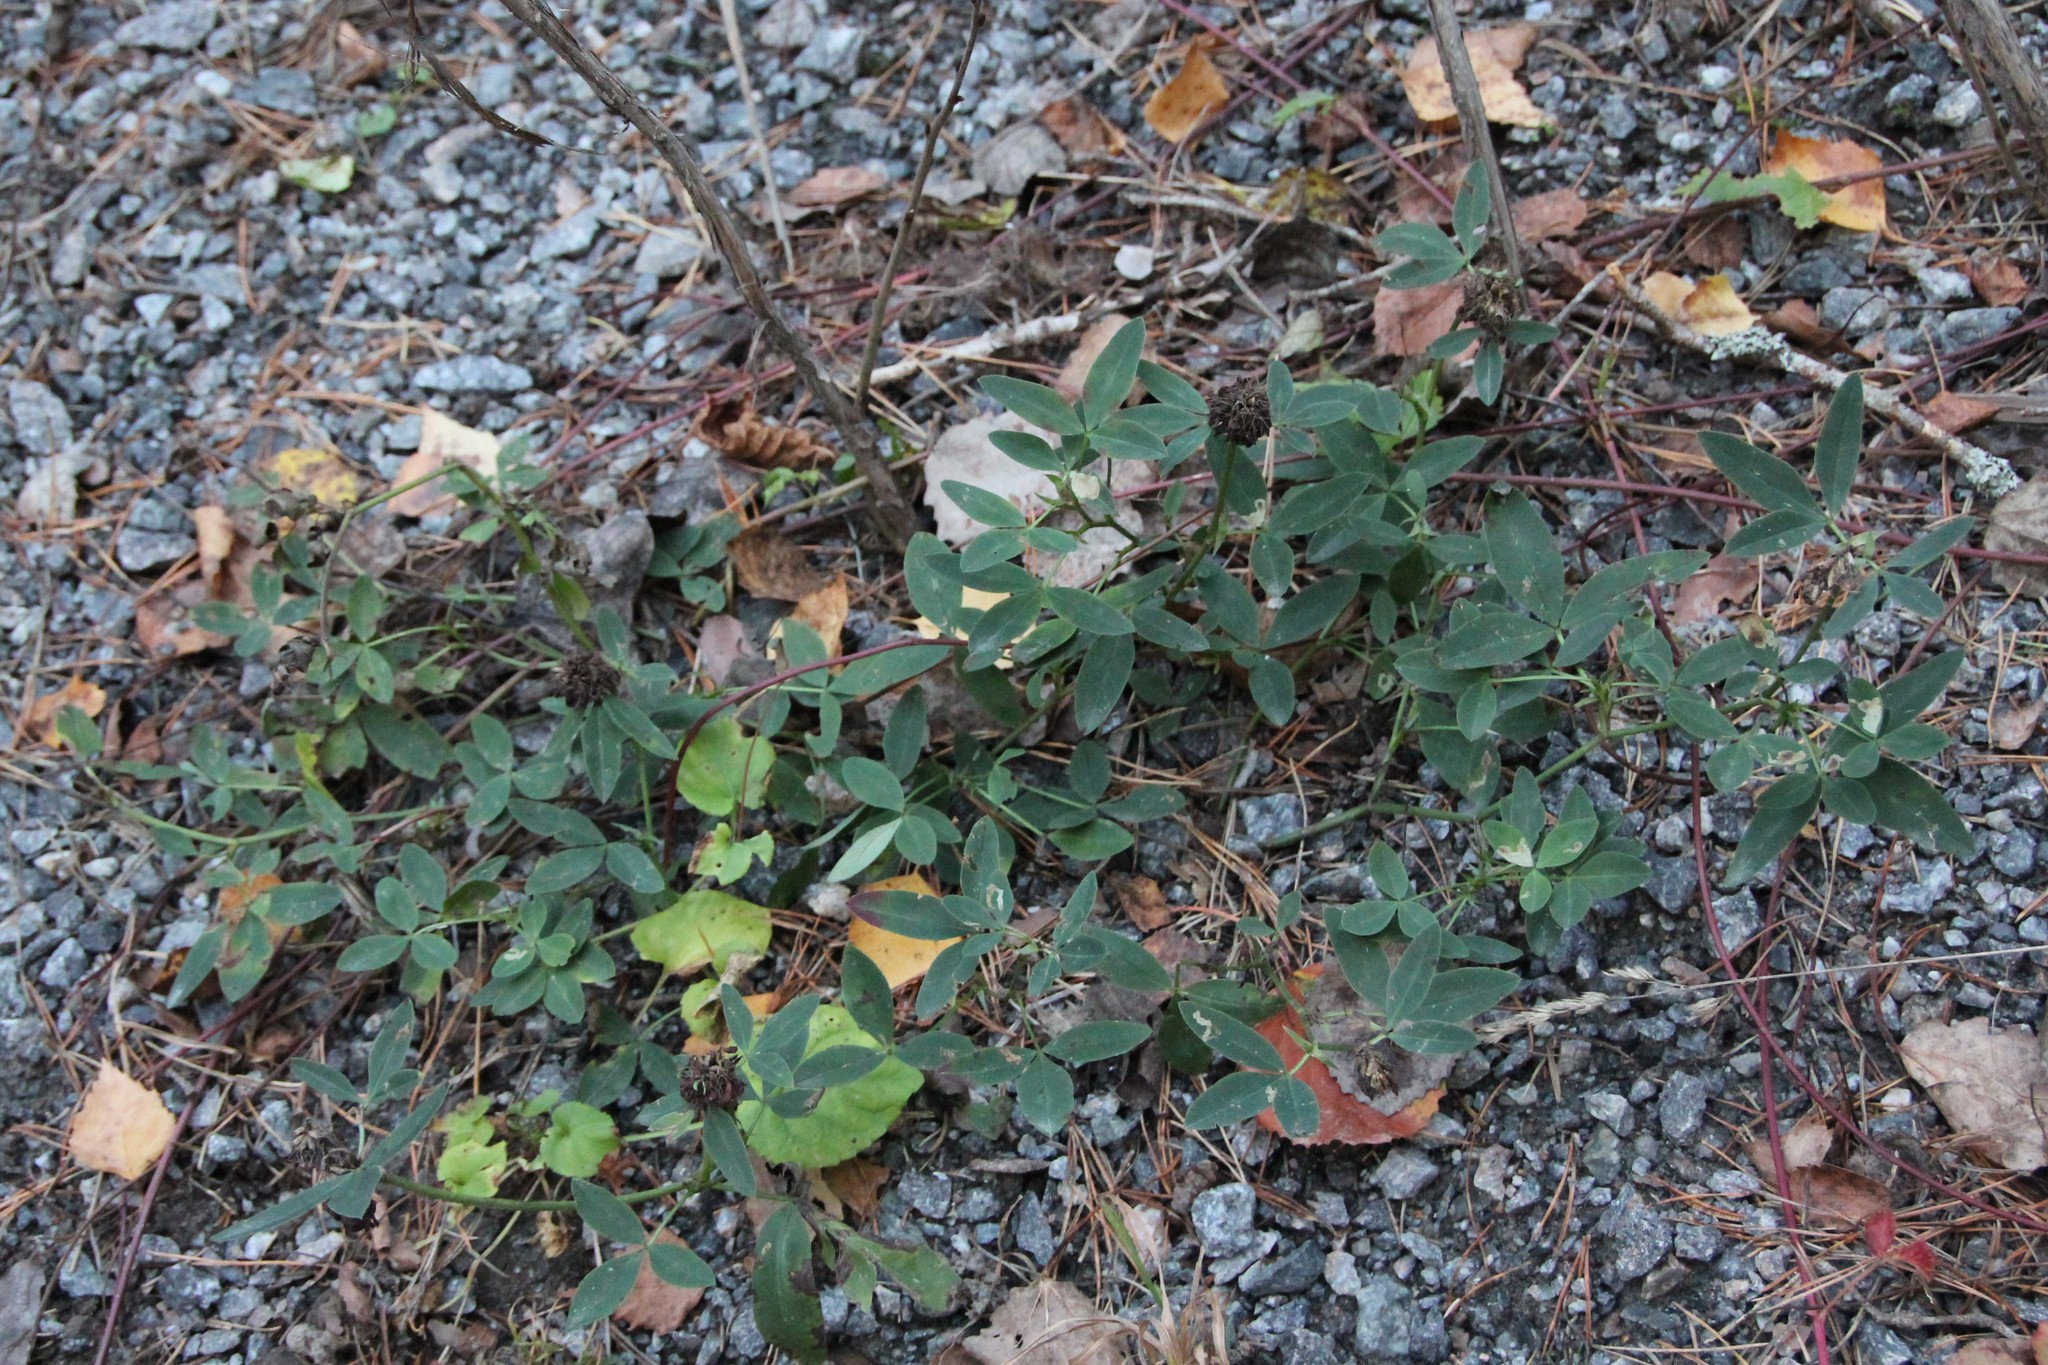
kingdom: Plantae
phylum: Tracheophyta
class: Magnoliopsida
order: Fabales
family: Fabaceae
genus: Trifolium
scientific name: Trifolium medium
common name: Zigzag clover
